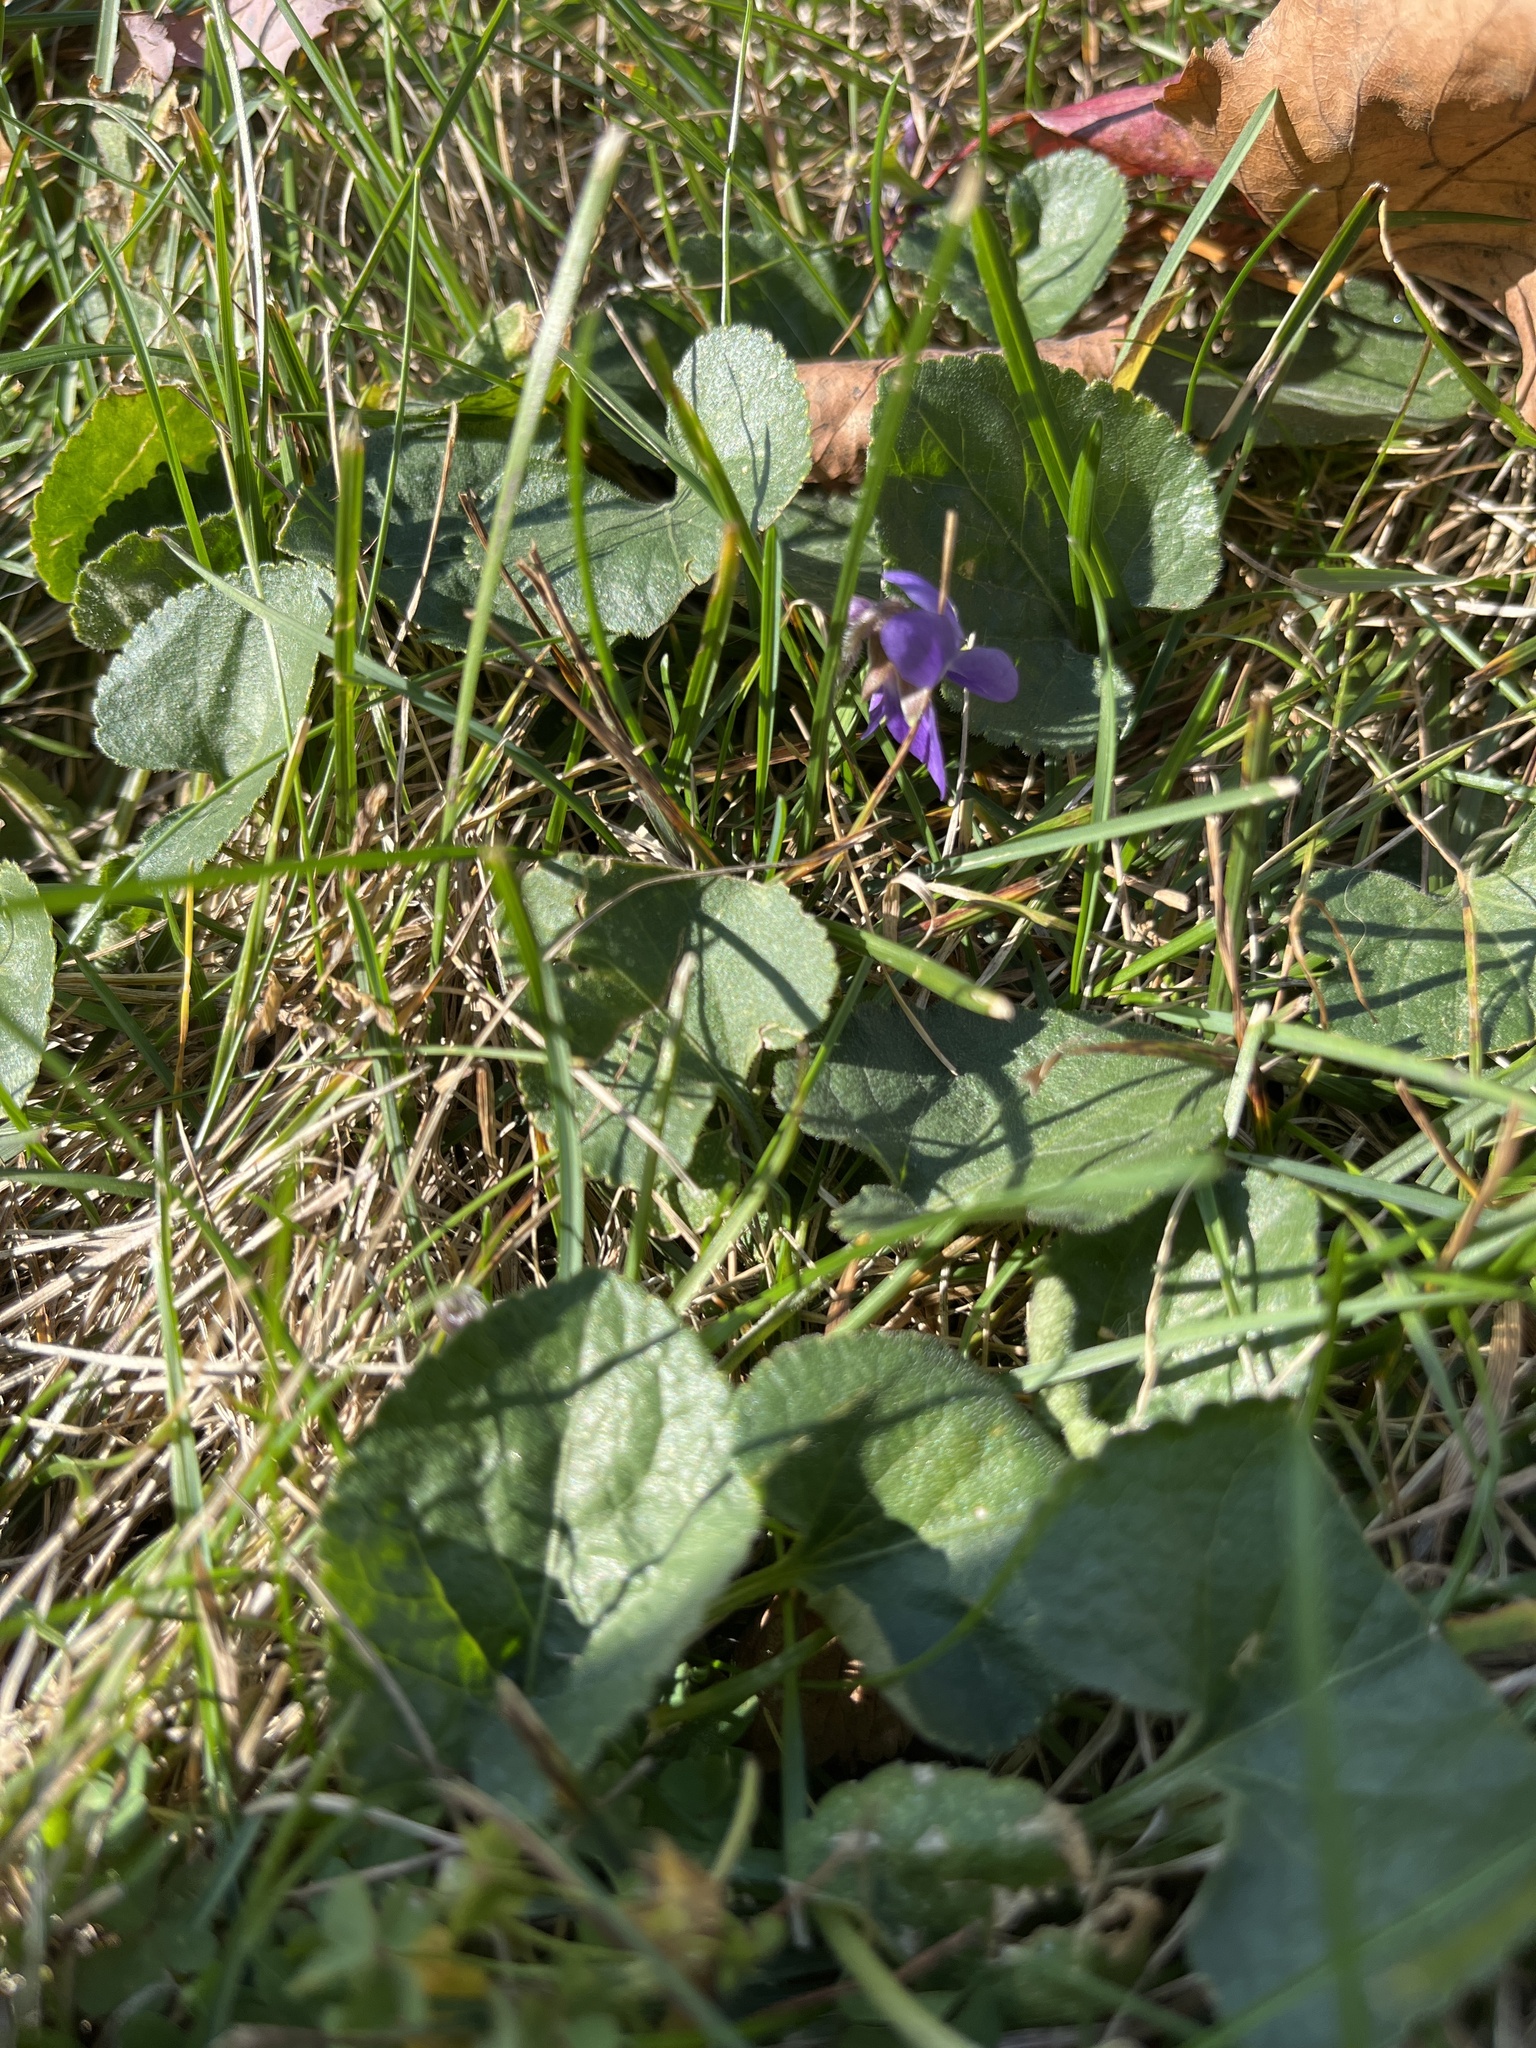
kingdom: Plantae
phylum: Tracheophyta
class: Magnoliopsida
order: Malpighiales
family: Violaceae
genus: Viola
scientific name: Viola
